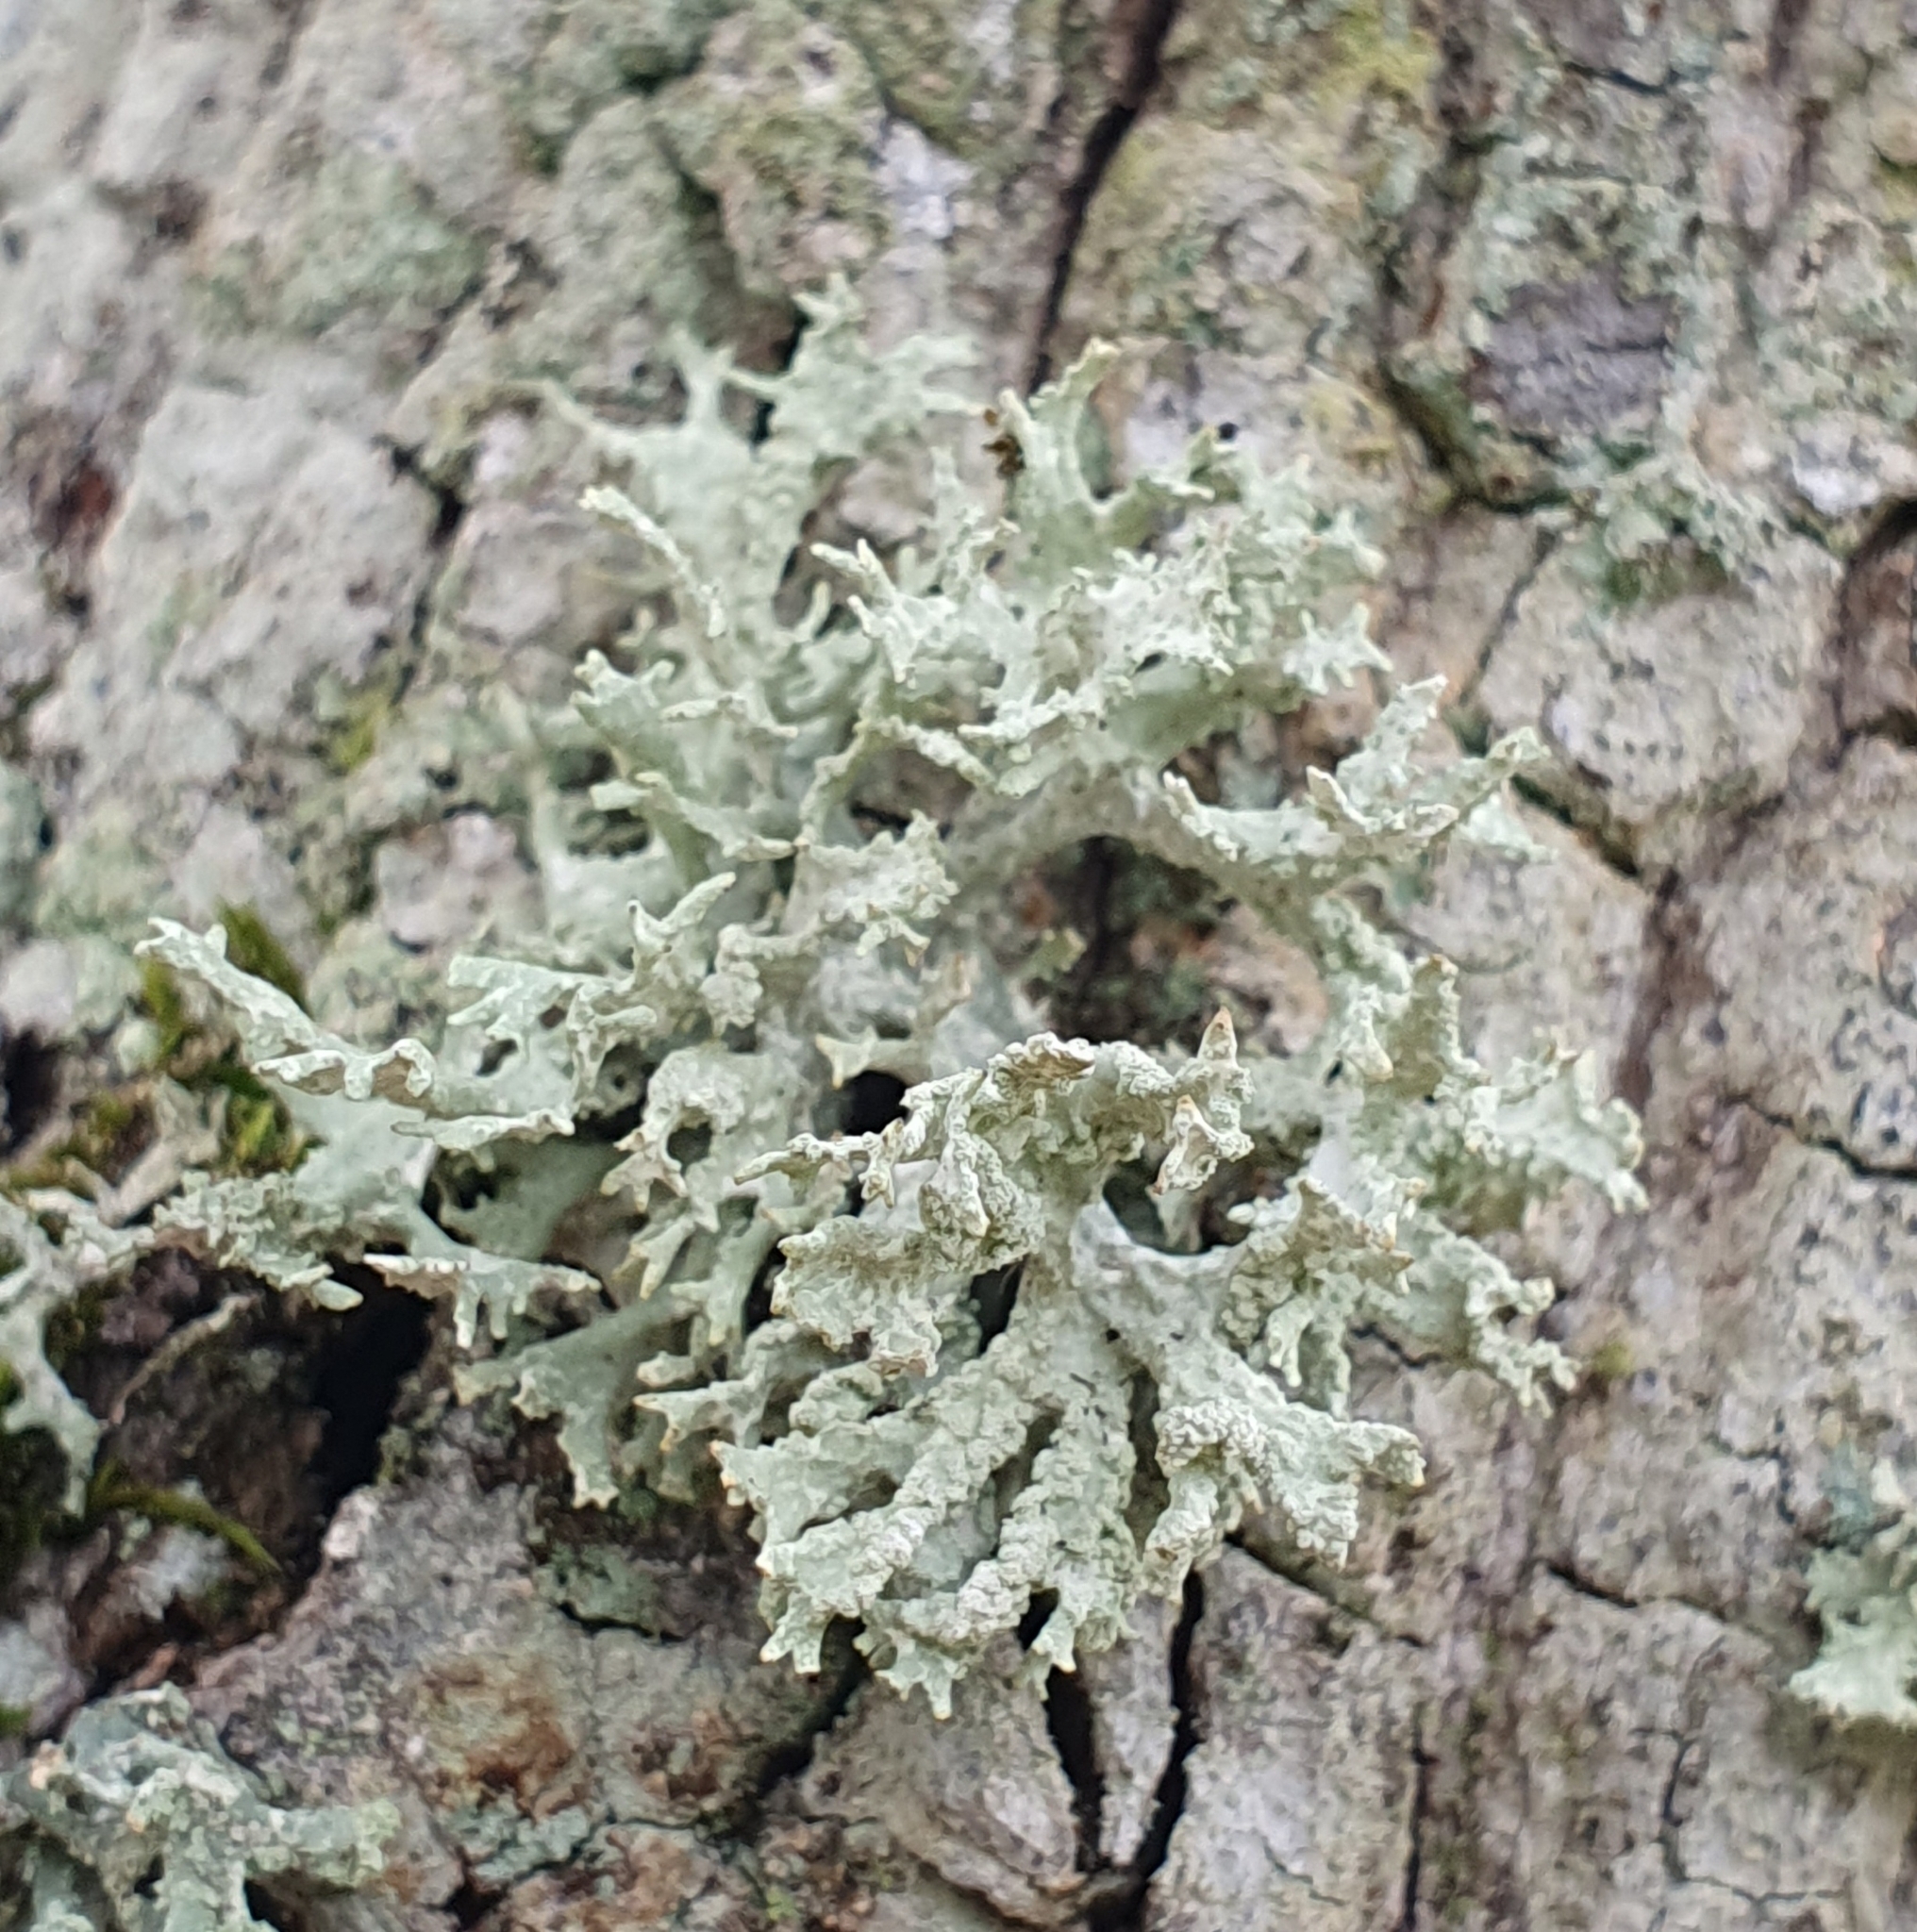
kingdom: Fungi
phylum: Ascomycota
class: Lecanoromycetes
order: Lecanorales
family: Parmeliaceae
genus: Evernia
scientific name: Evernia prunastri
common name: Oak moss
